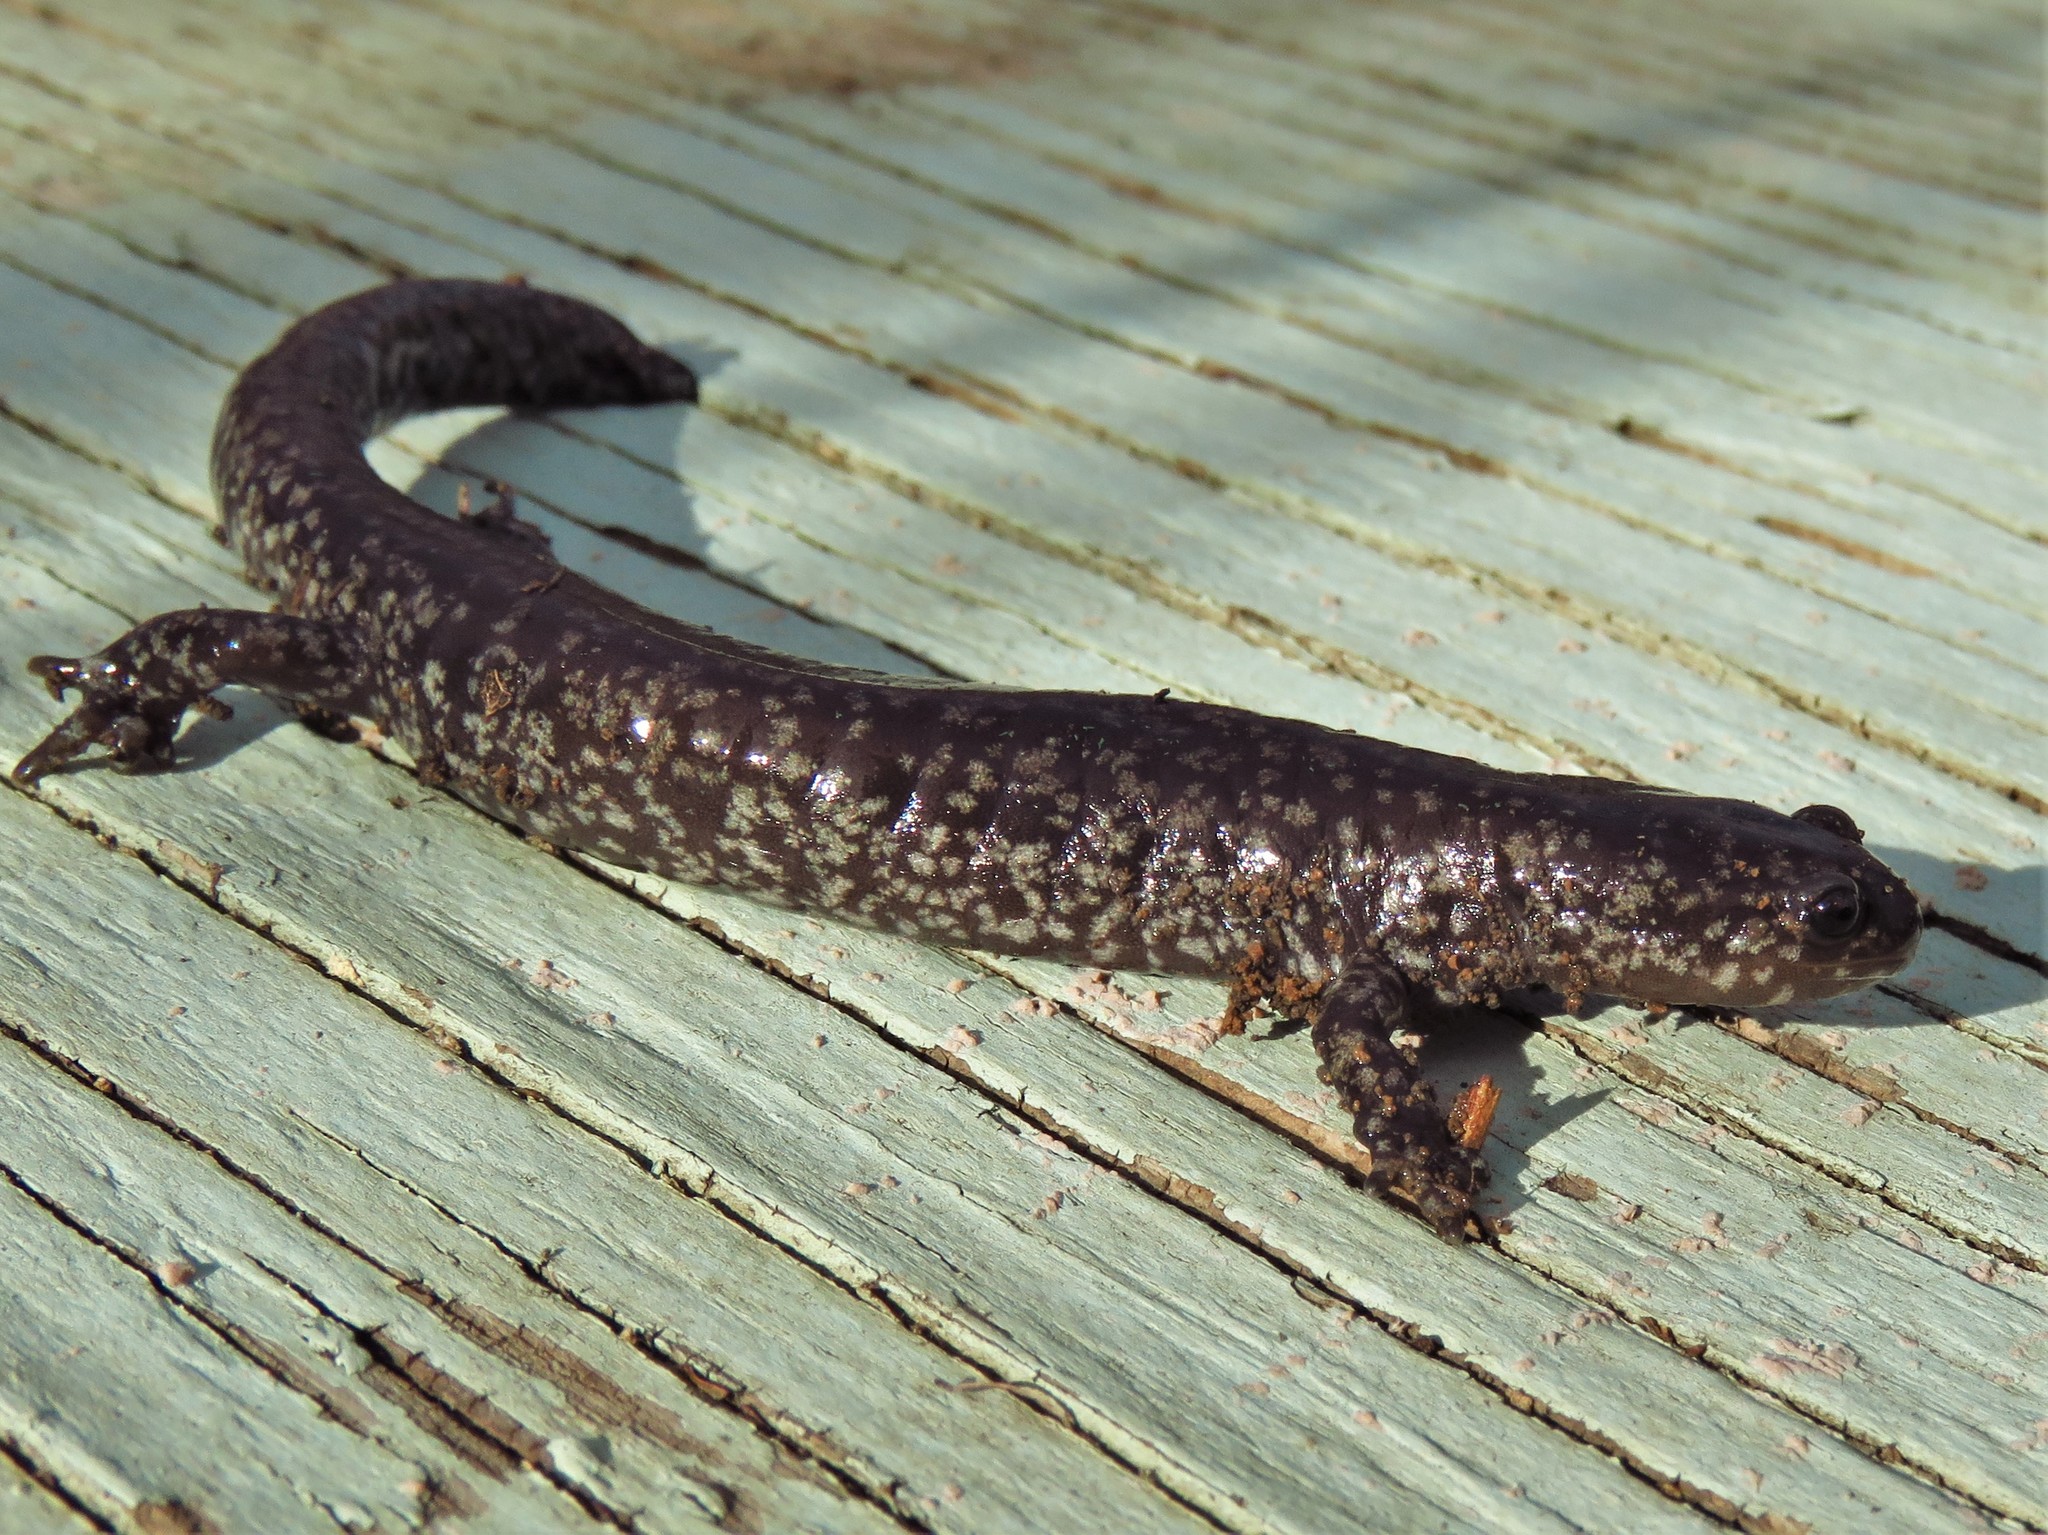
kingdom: Animalia
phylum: Chordata
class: Amphibia
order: Caudata
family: Ambystomatidae
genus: Ambystoma
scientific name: Ambystoma texanum
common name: Small-mouth salamander
